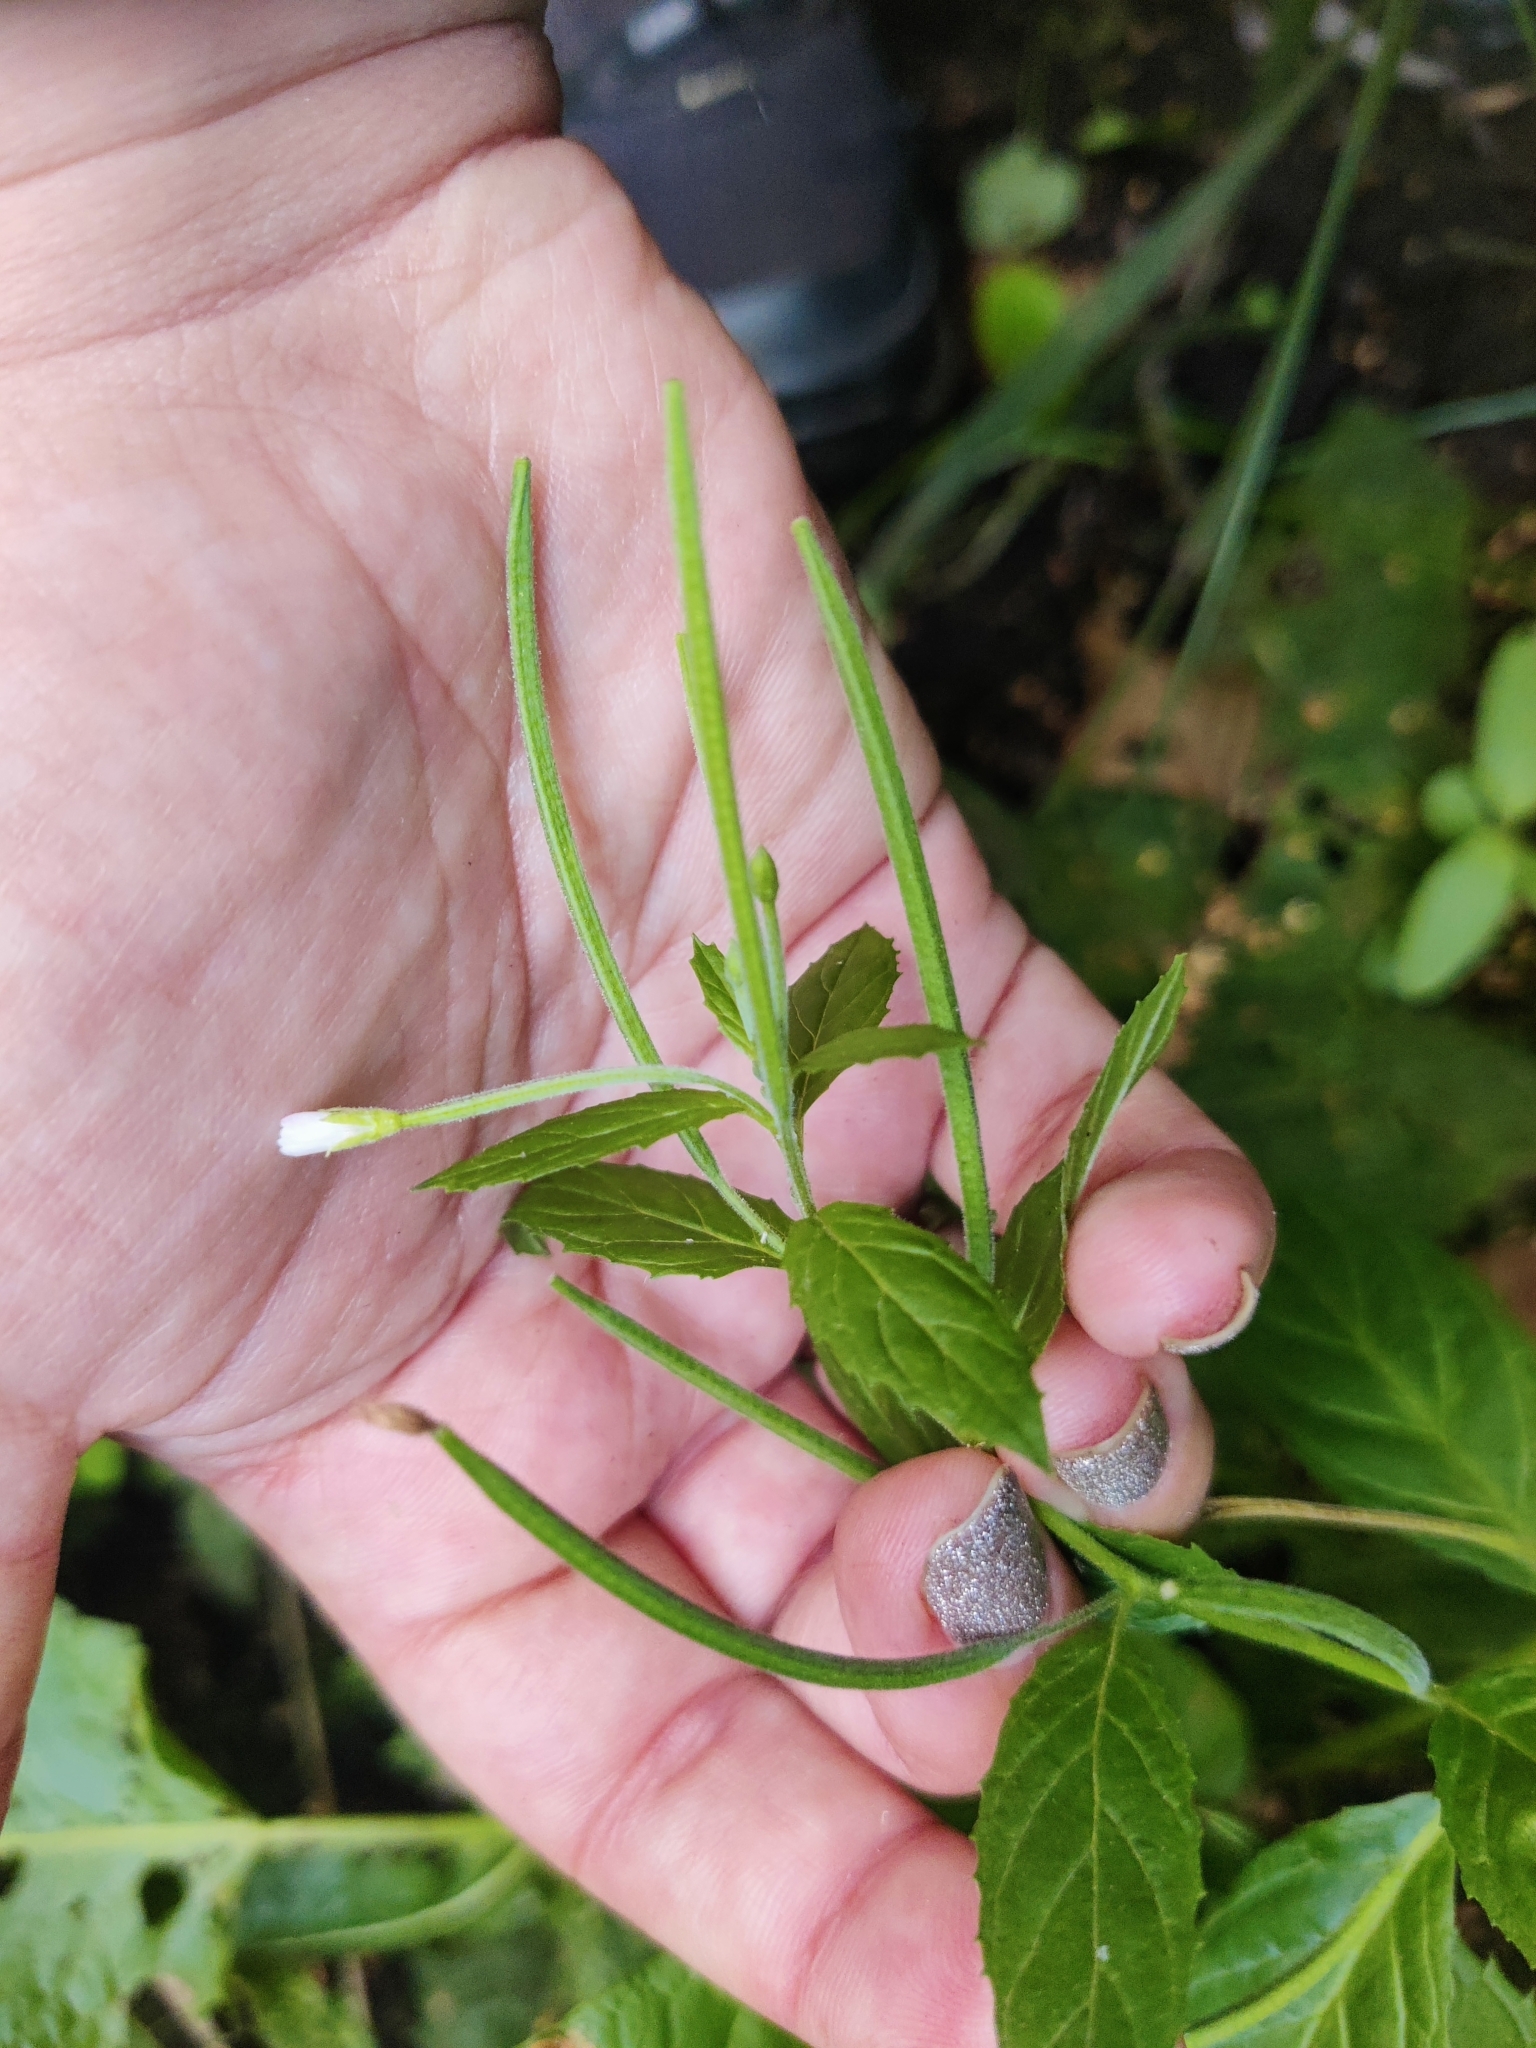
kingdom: Plantae
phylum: Tracheophyta
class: Magnoliopsida
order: Myrtales
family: Onagraceae
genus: Epilobium
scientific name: Epilobium pseudorubescens
